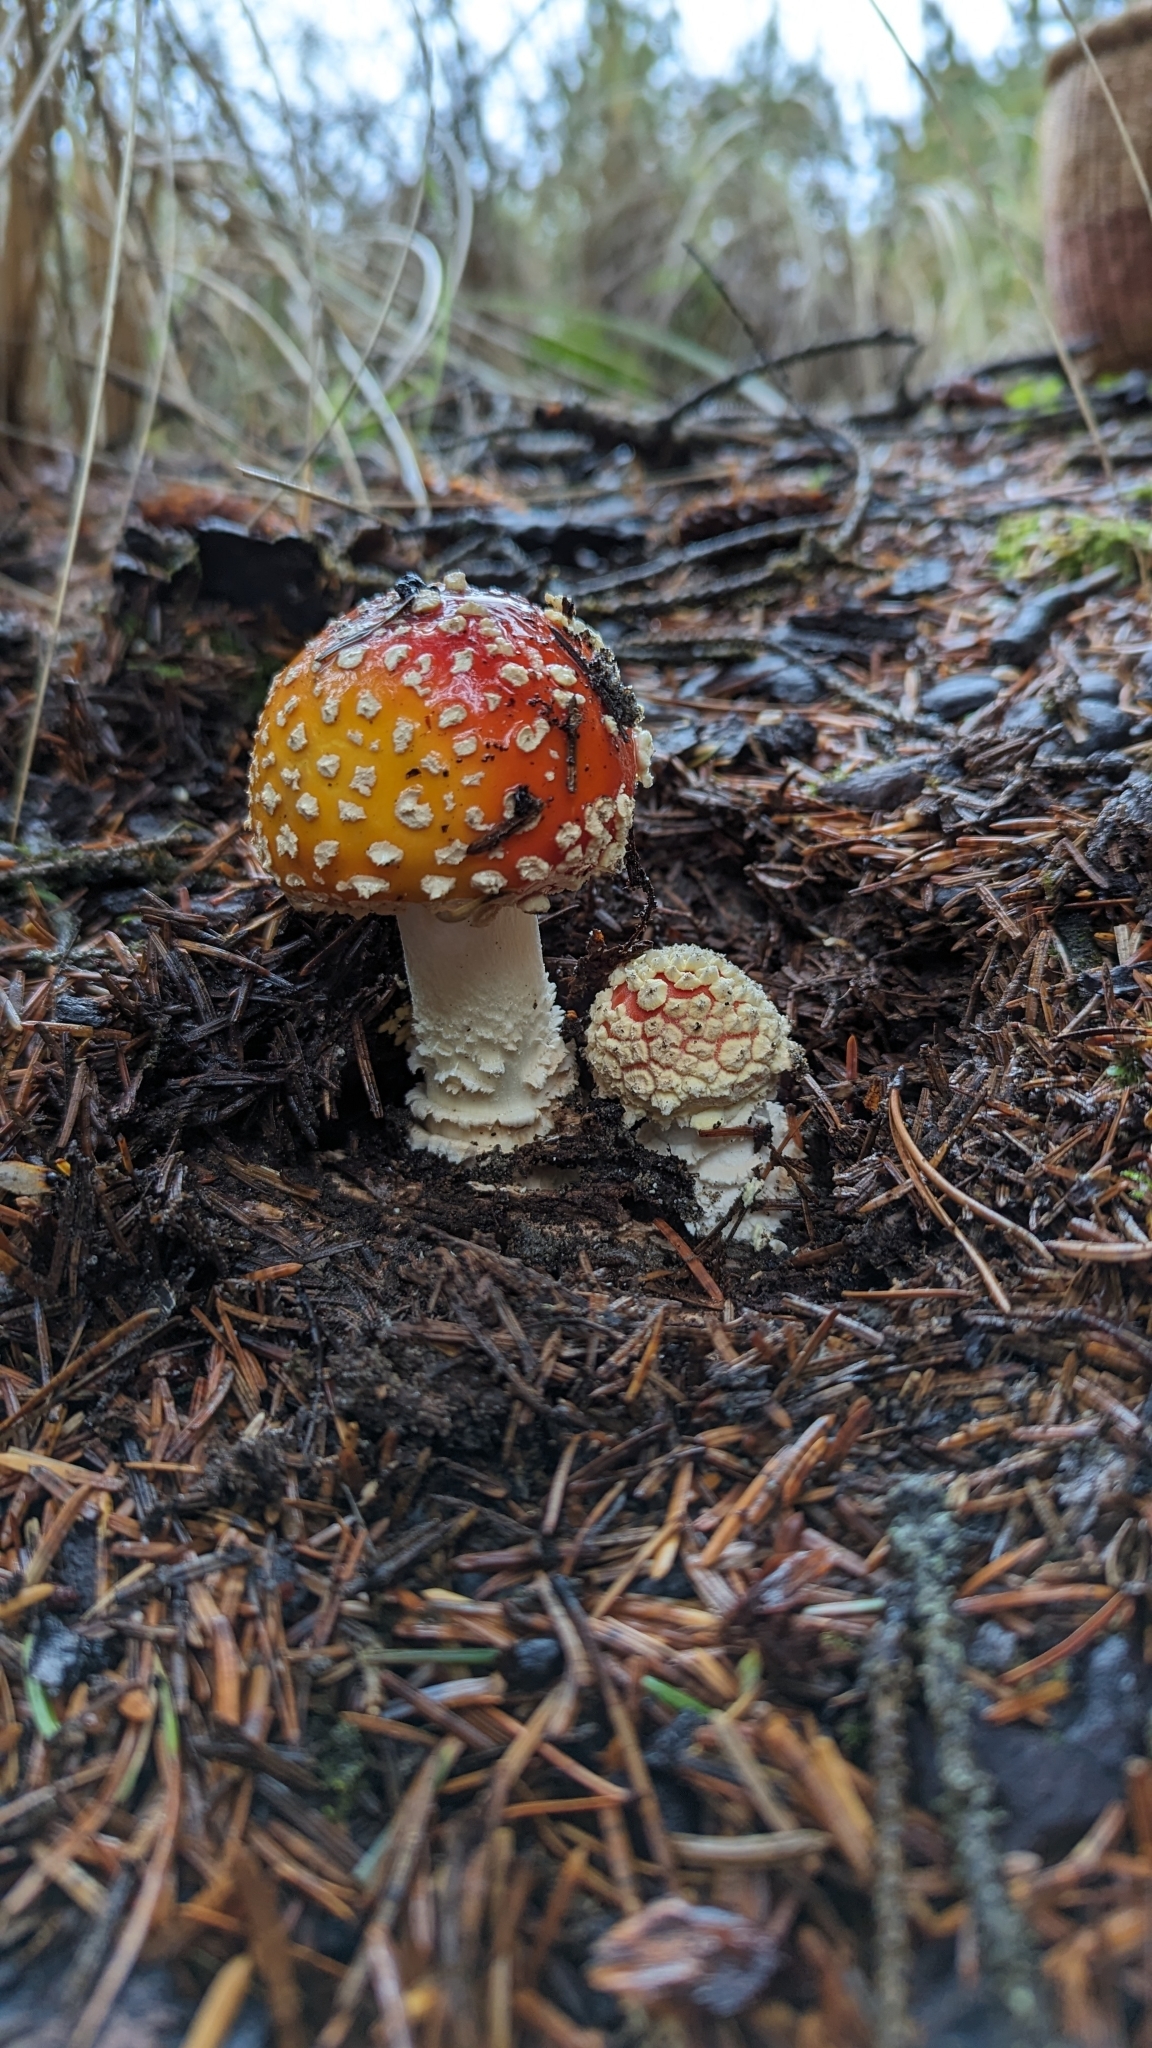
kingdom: Fungi
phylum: Basidiomycota
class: Agaricomycetes
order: Agaricales
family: Amanitaceae
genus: Amanita
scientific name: Amanita muscaria
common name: Fly agaric
